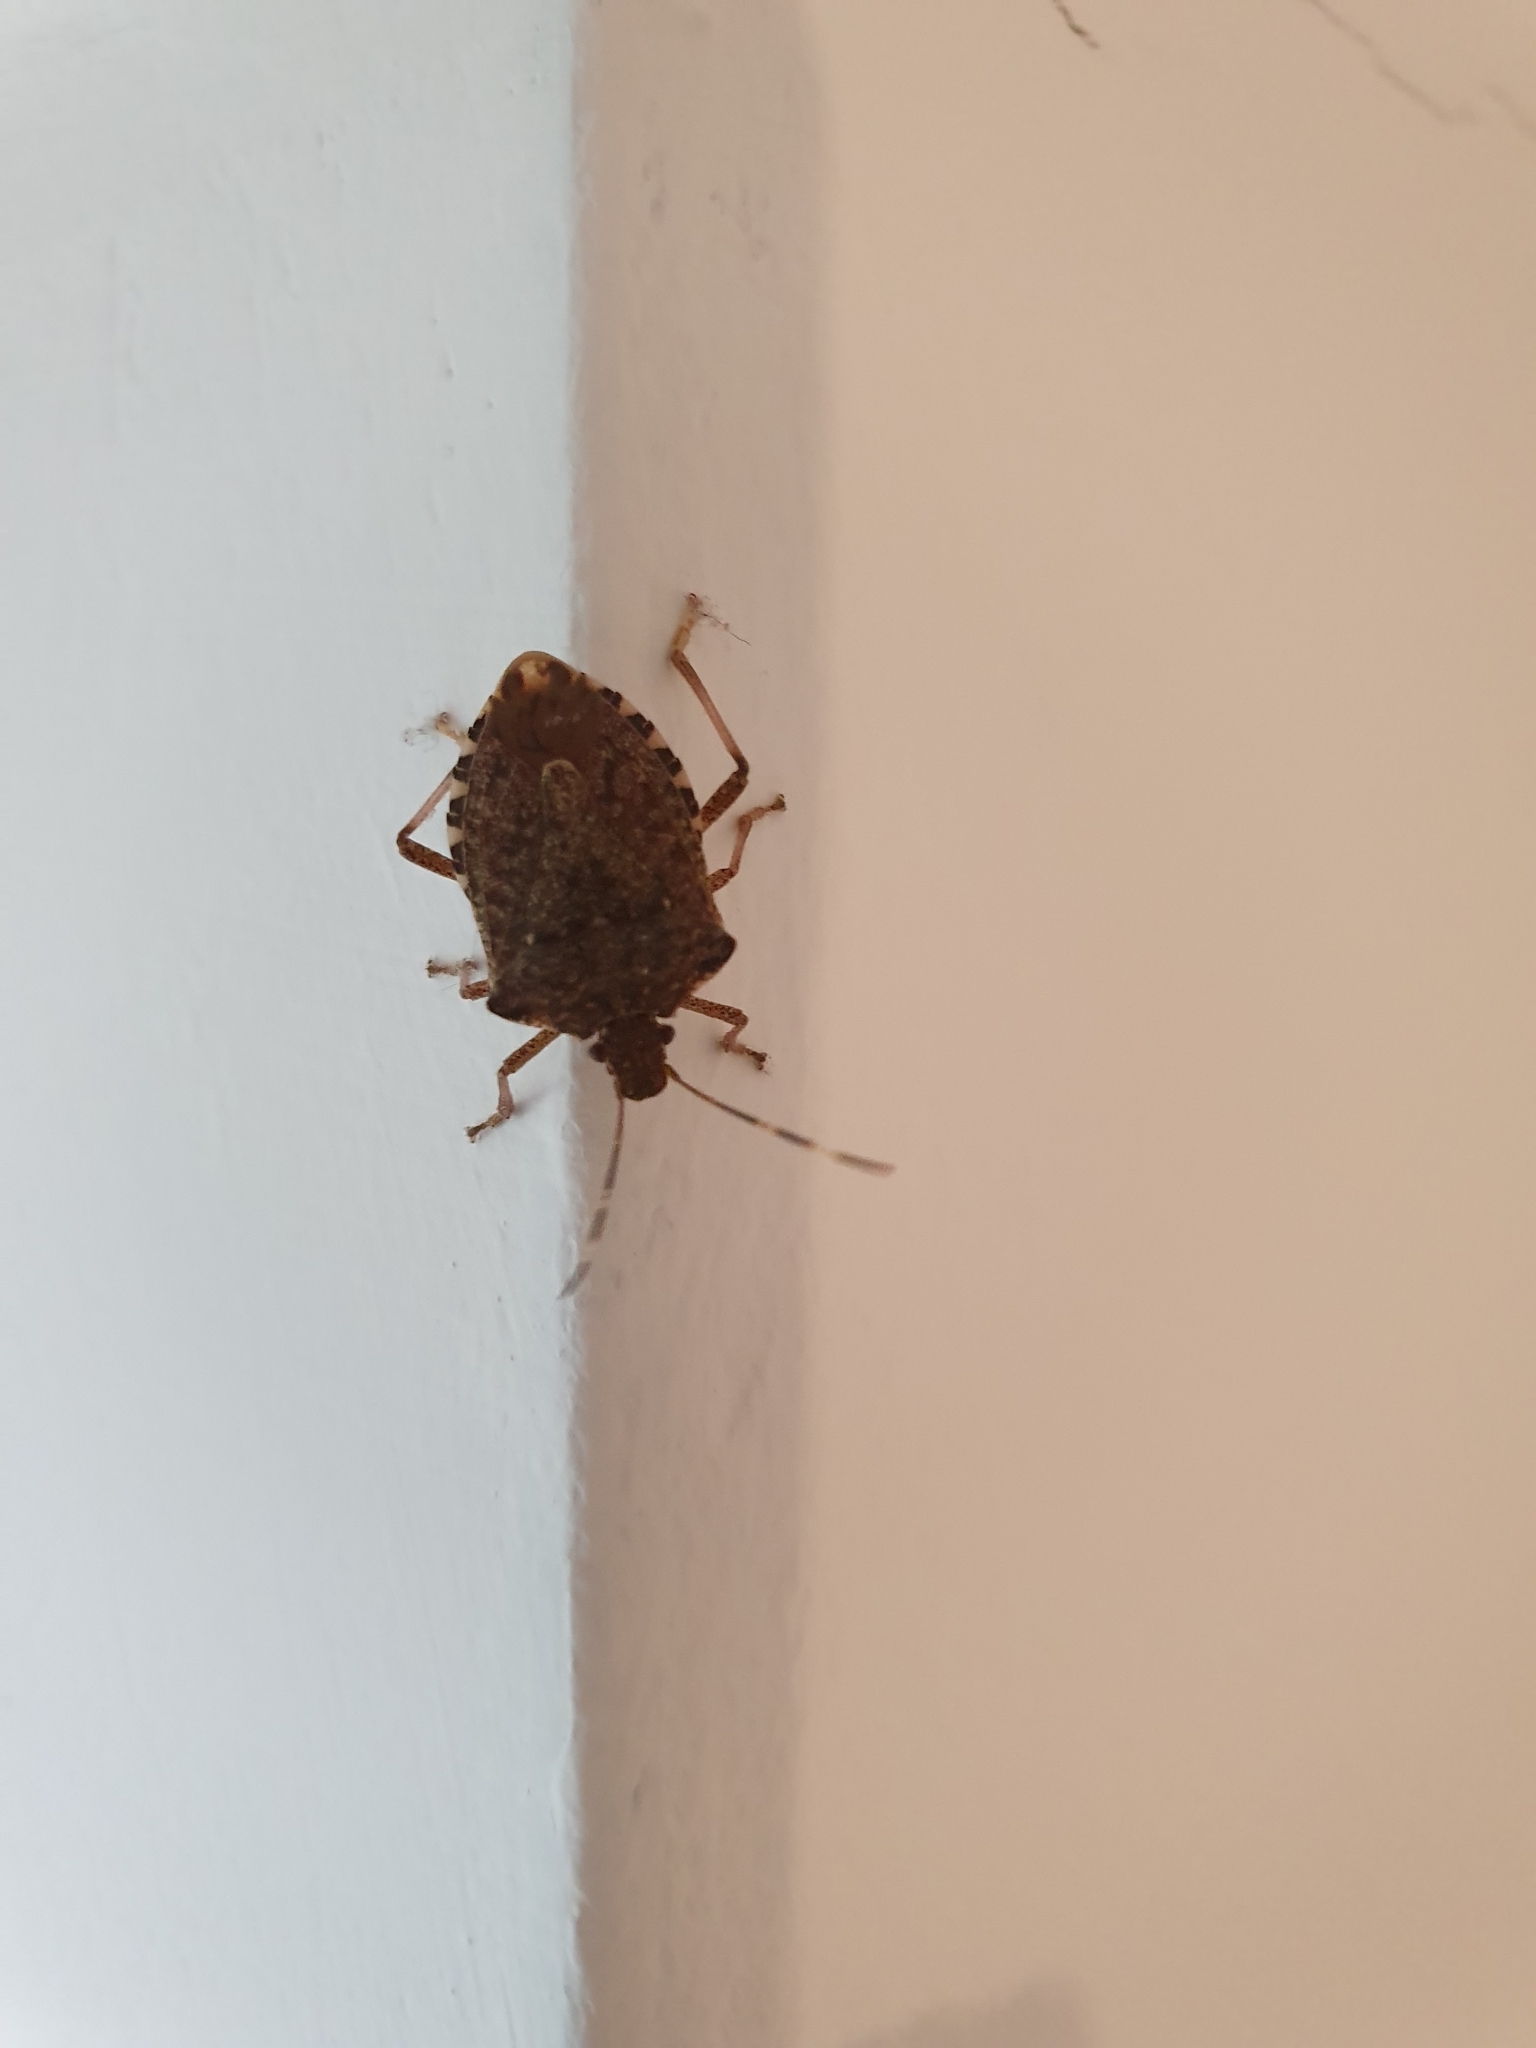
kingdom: Animalia
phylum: Arthropoda
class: Insecta
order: Hemiptera
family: Pentatomidae
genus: Halyomorpha
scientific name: Halyomorpha halys
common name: Brown marmorated stink bug
